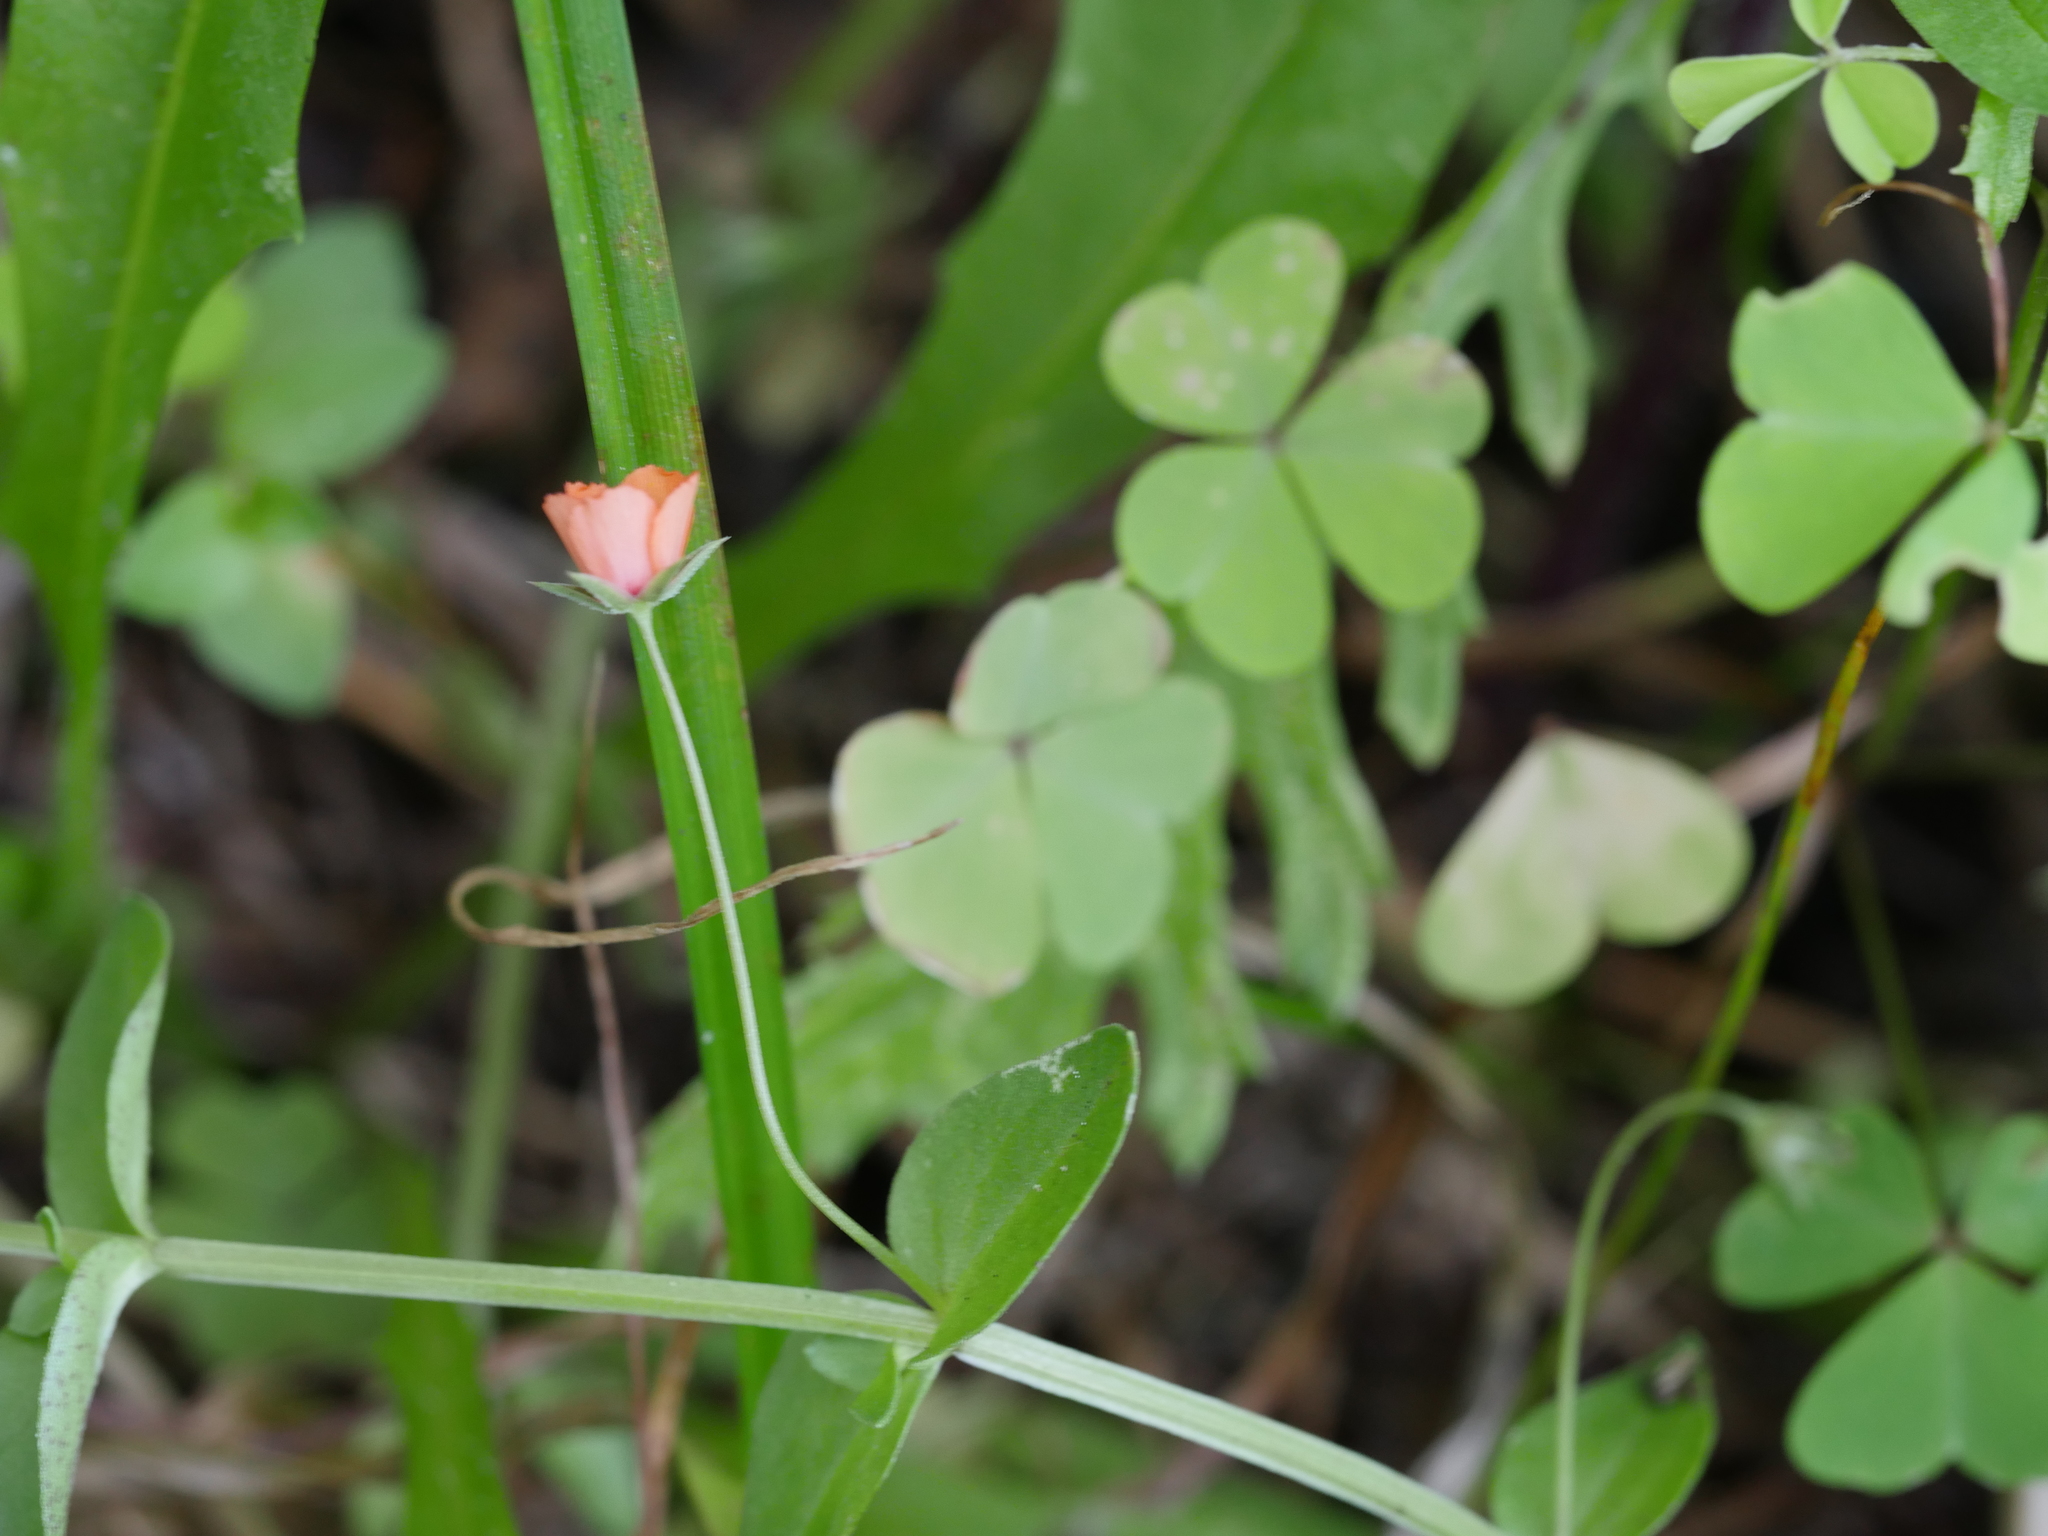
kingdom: Plantae
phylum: Tracheophyta
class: Magnoliopsida
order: Ericales
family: Primulaceae
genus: Lysimachia
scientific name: Lysimachia arvensis
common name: Scarlet pimpernel
